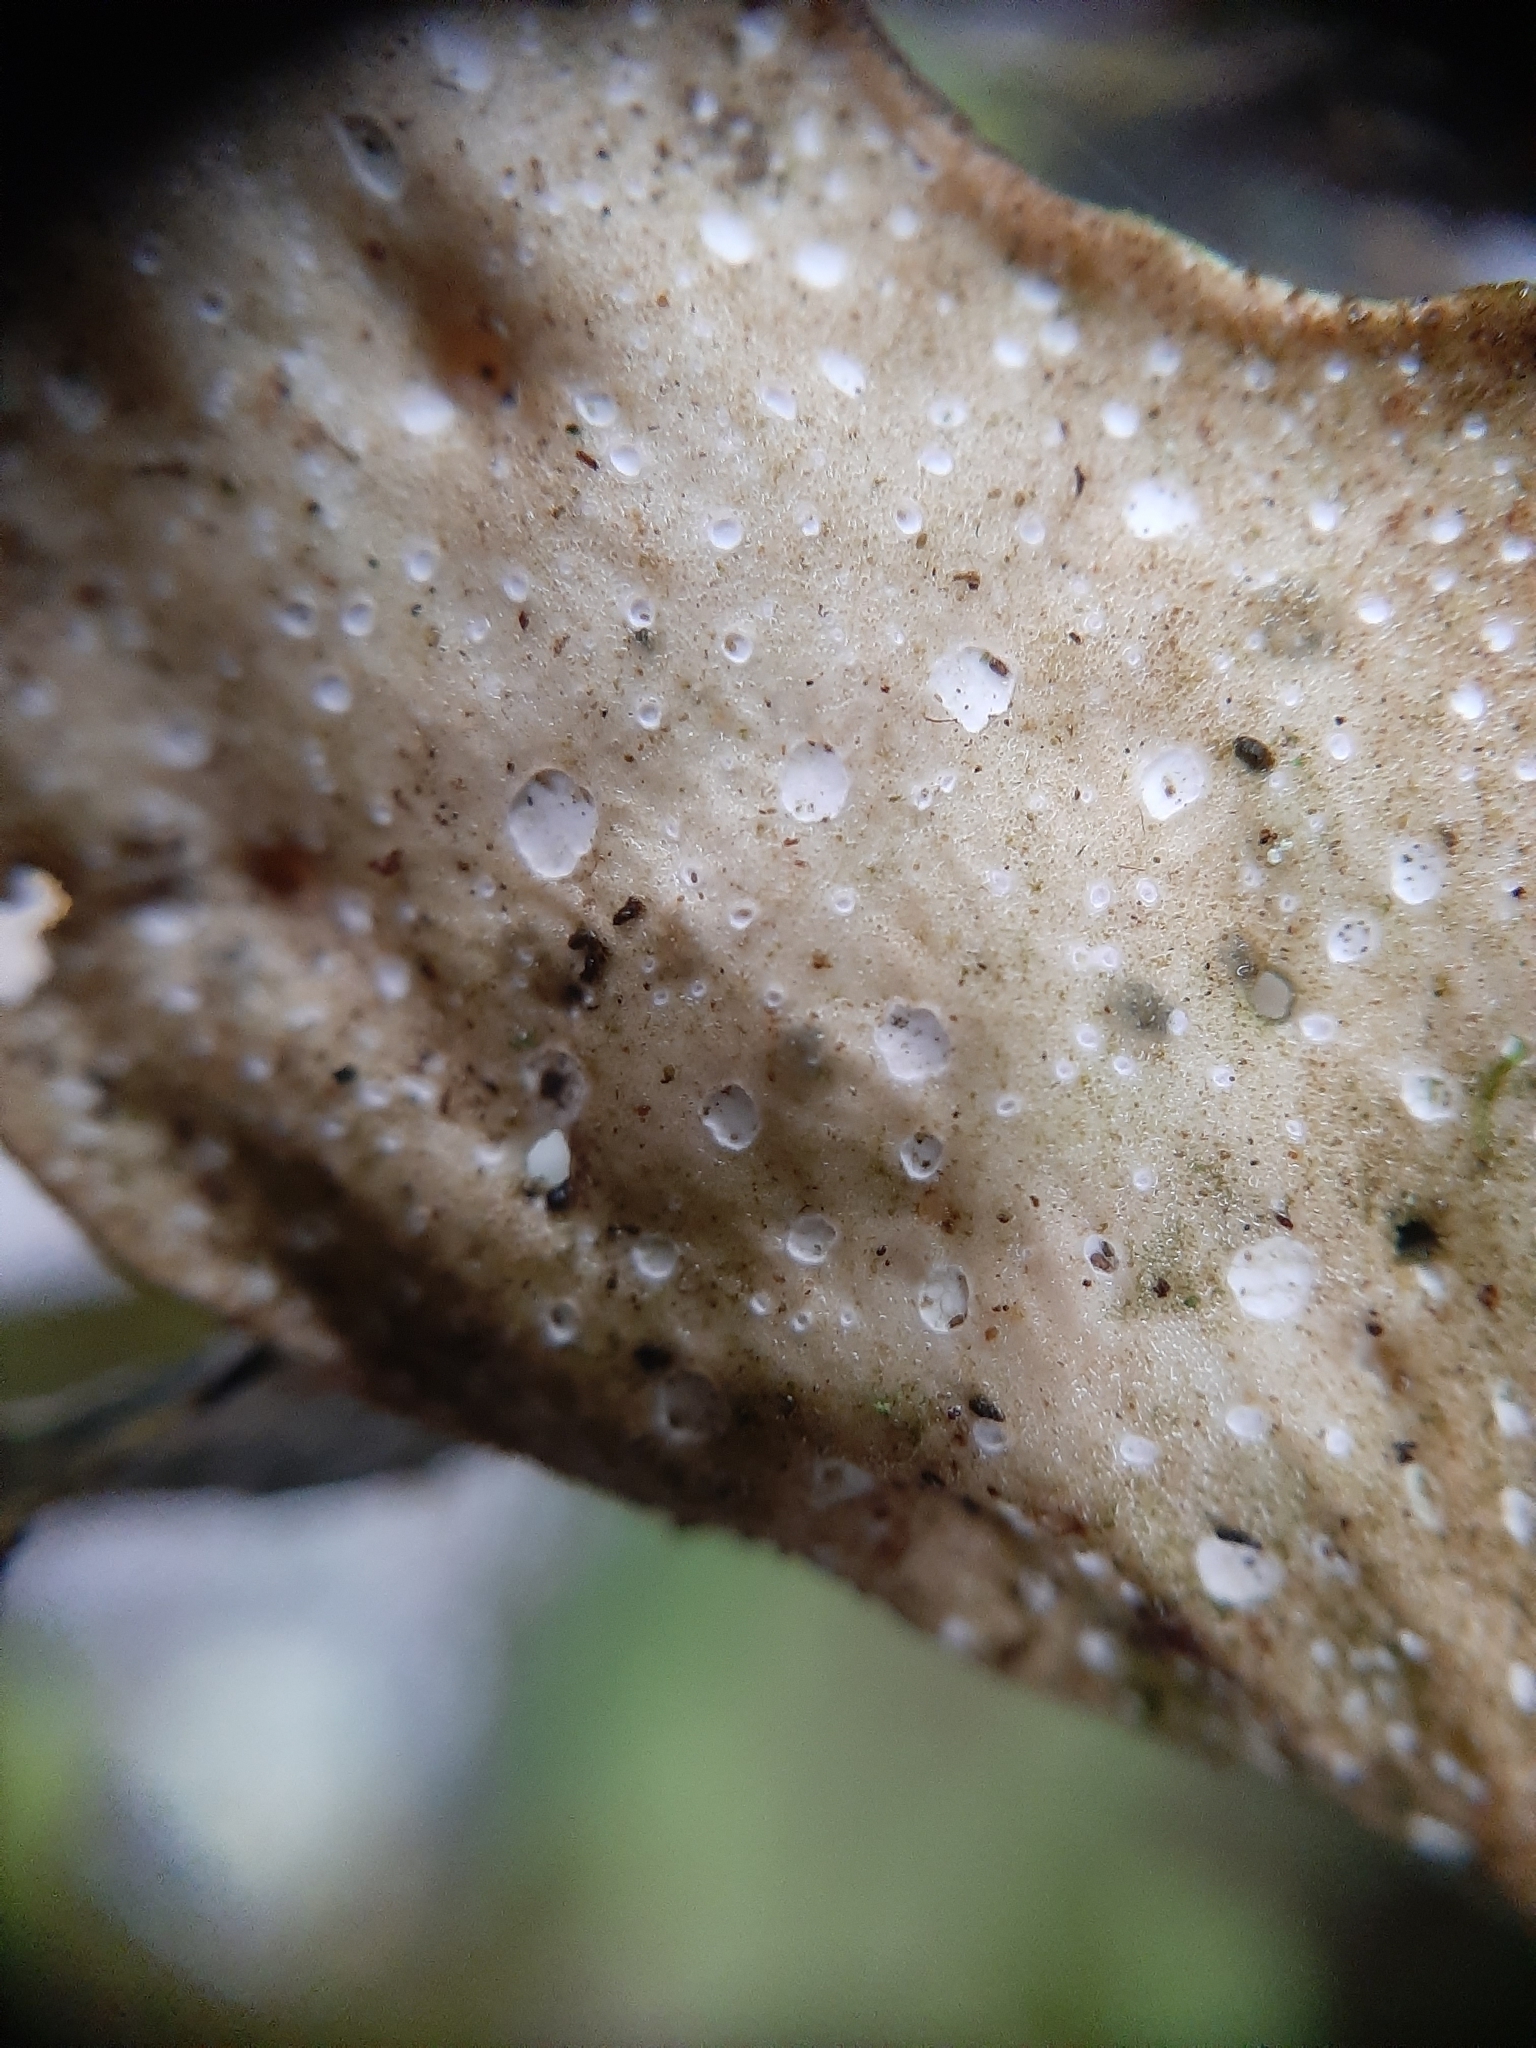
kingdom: Fungi
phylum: Ascomycota
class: Lecanoromycetes
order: Peltigerales
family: Lobariaceae
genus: Sticta
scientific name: Sticta latifrons
